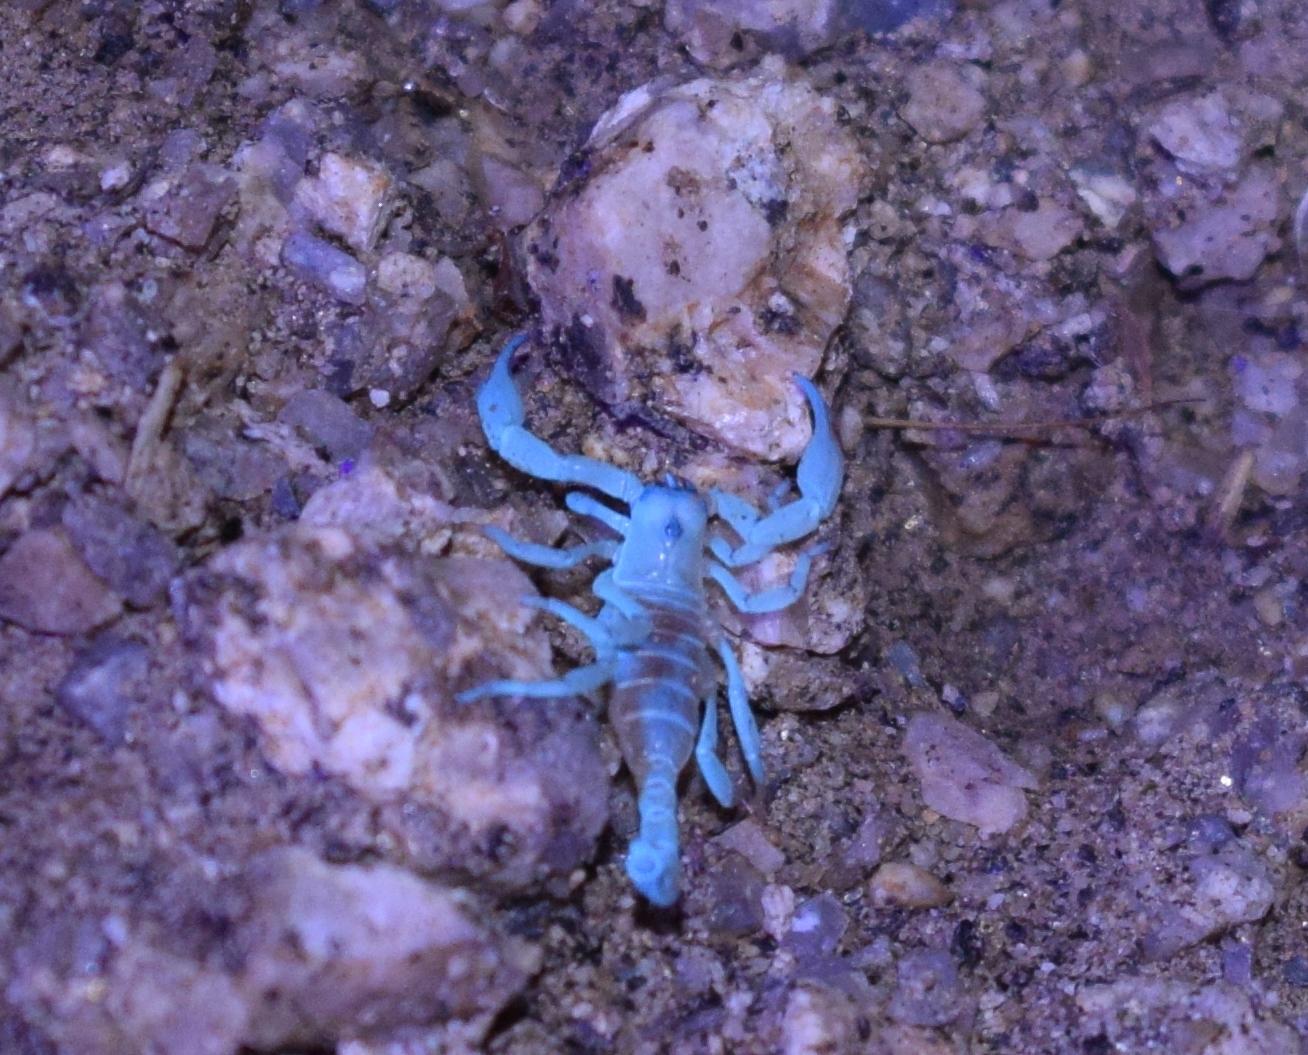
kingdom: Animalia
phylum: Arthropoda
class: Arachnida
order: Scorpiones
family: Chactidae
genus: Anuroctonus
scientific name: Anuroctonus pococki
